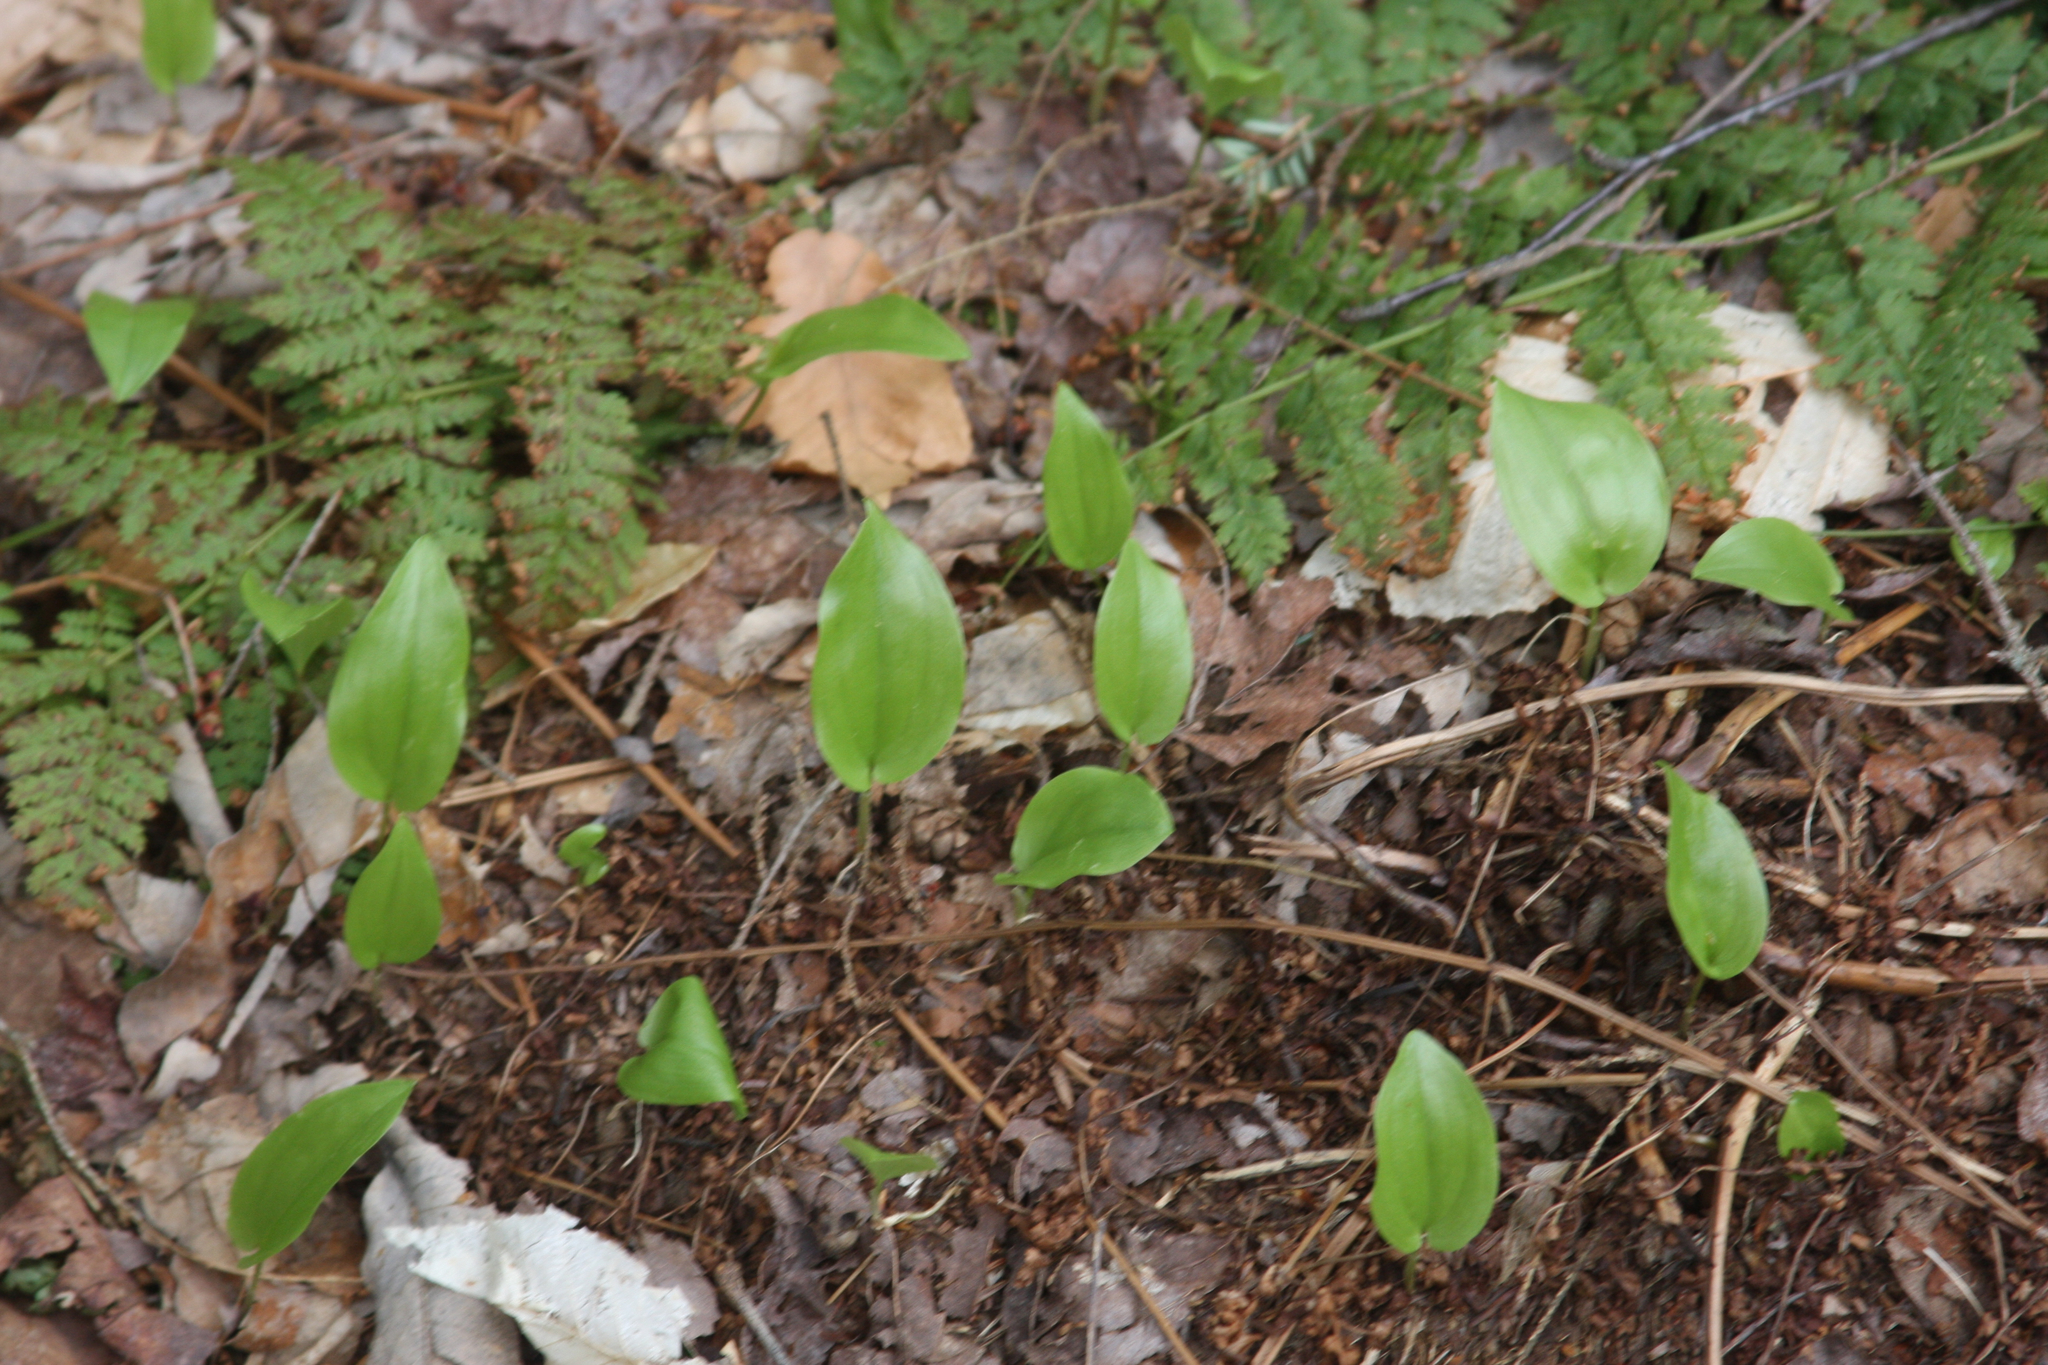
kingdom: Plantae
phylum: Tracheophyta
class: Liliopsida
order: Asparagales
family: Asparagaceae
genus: Maianthemum
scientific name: Maianthemum canadense
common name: False lily-of-the-valley
